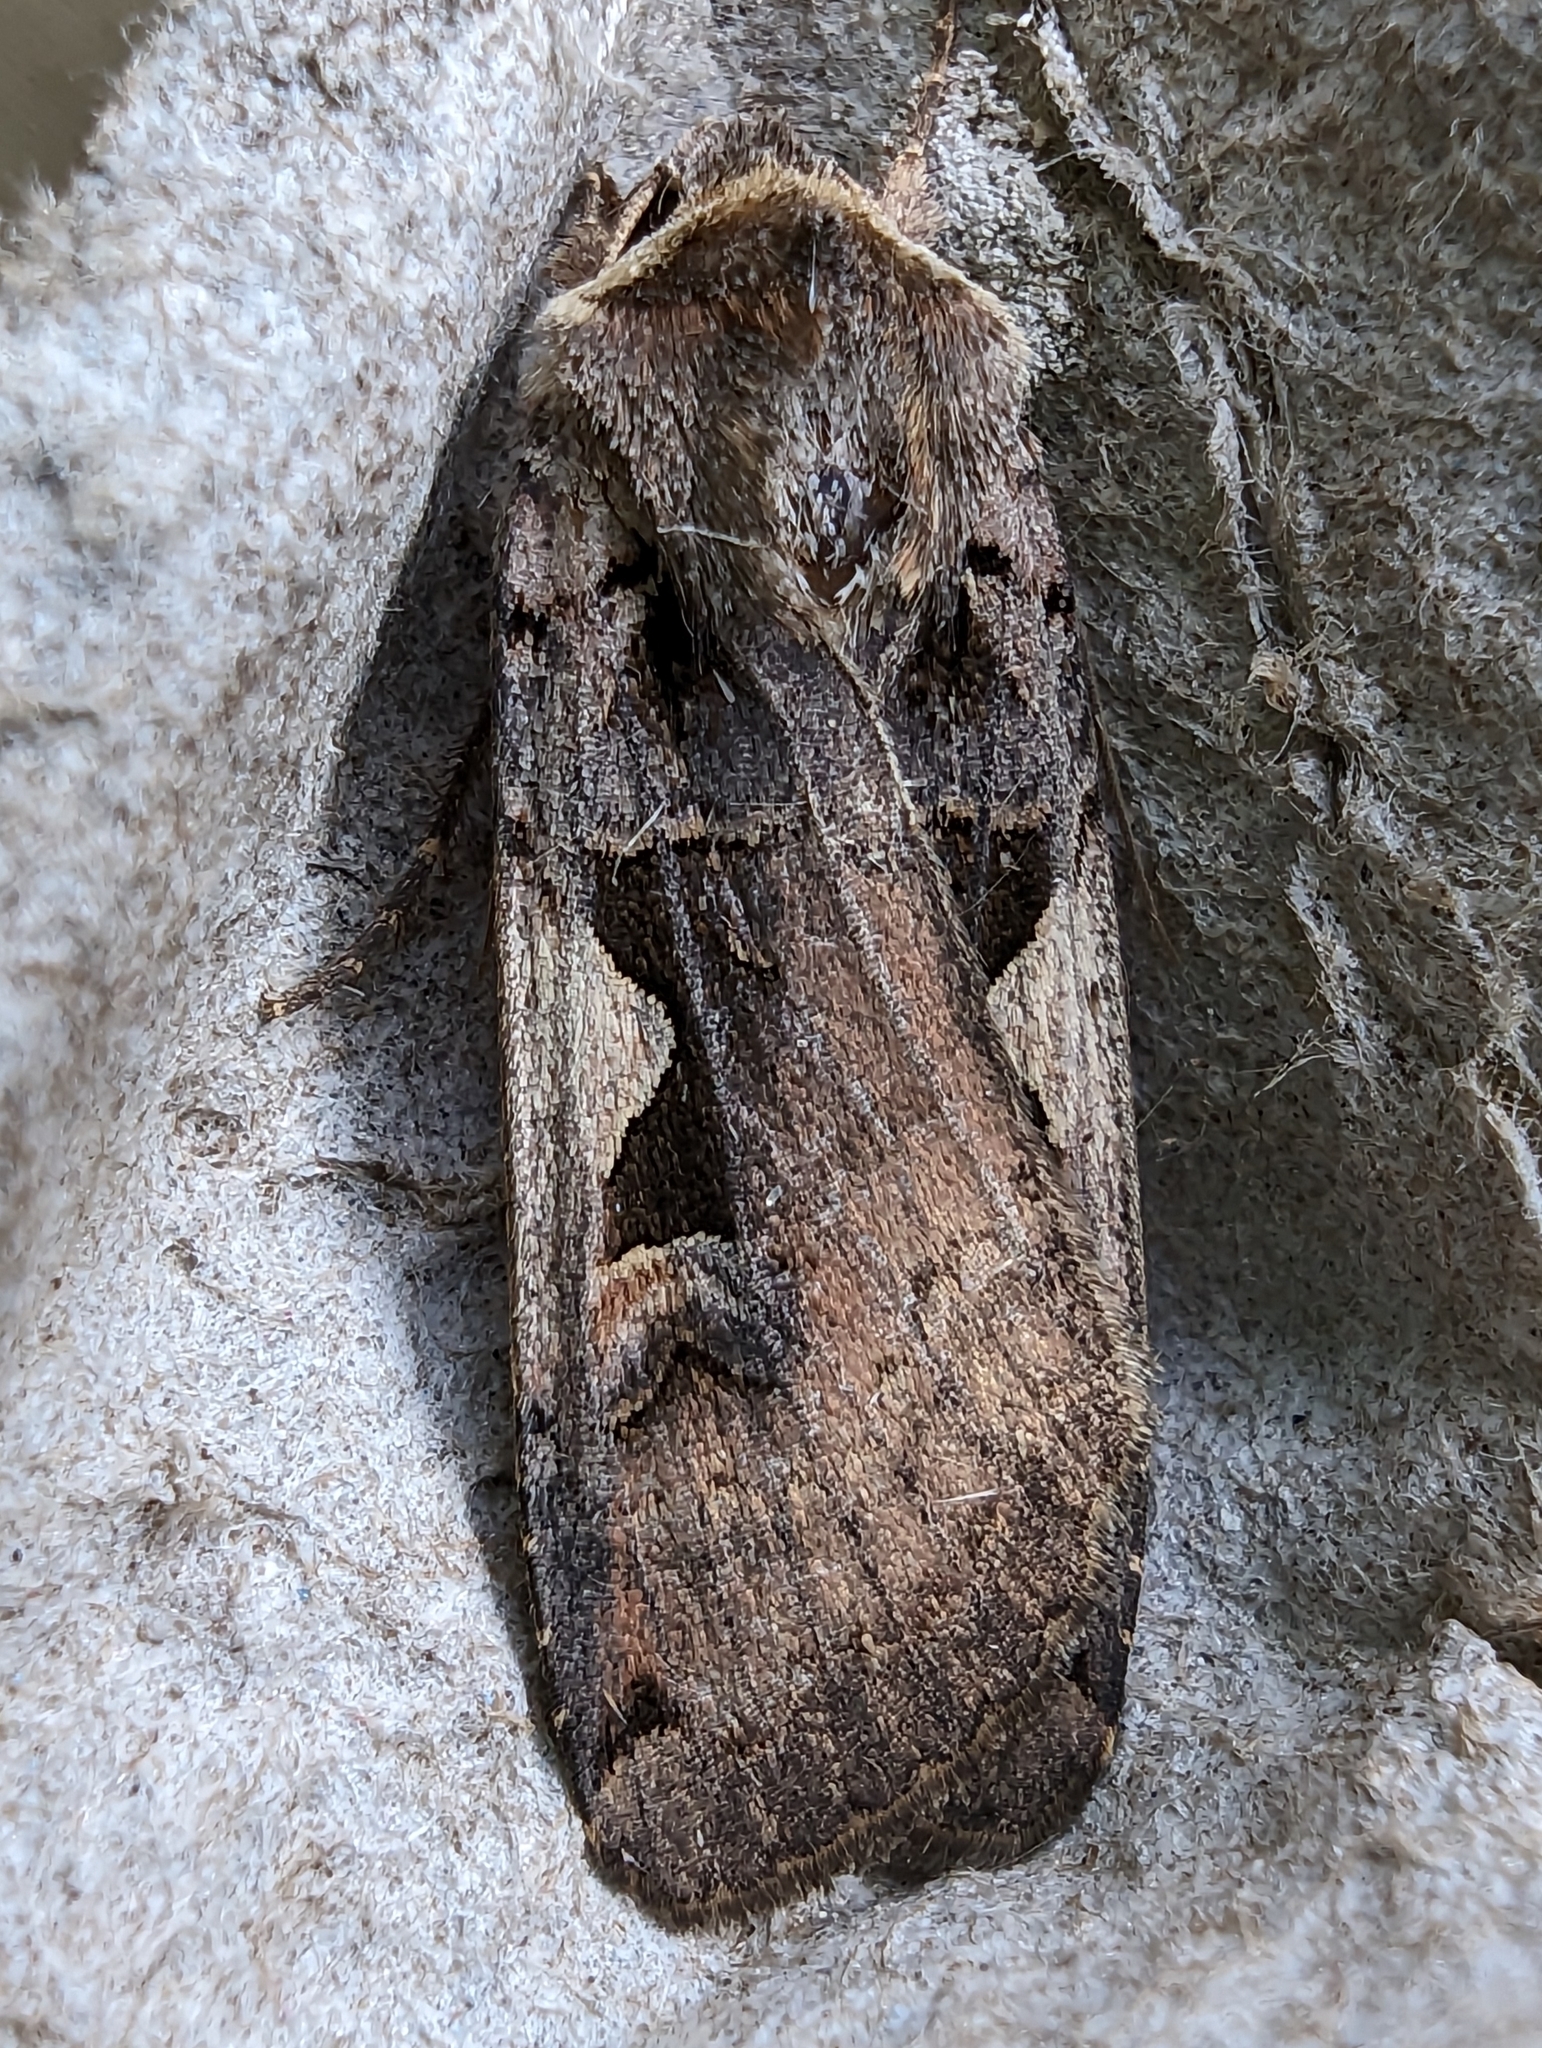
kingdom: Animalia
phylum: Arthropoda
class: Insecta
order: Lepidoptera
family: Noctuidae
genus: Xestia
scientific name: Xestia c-nigrum
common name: Setaceous hebrew character
